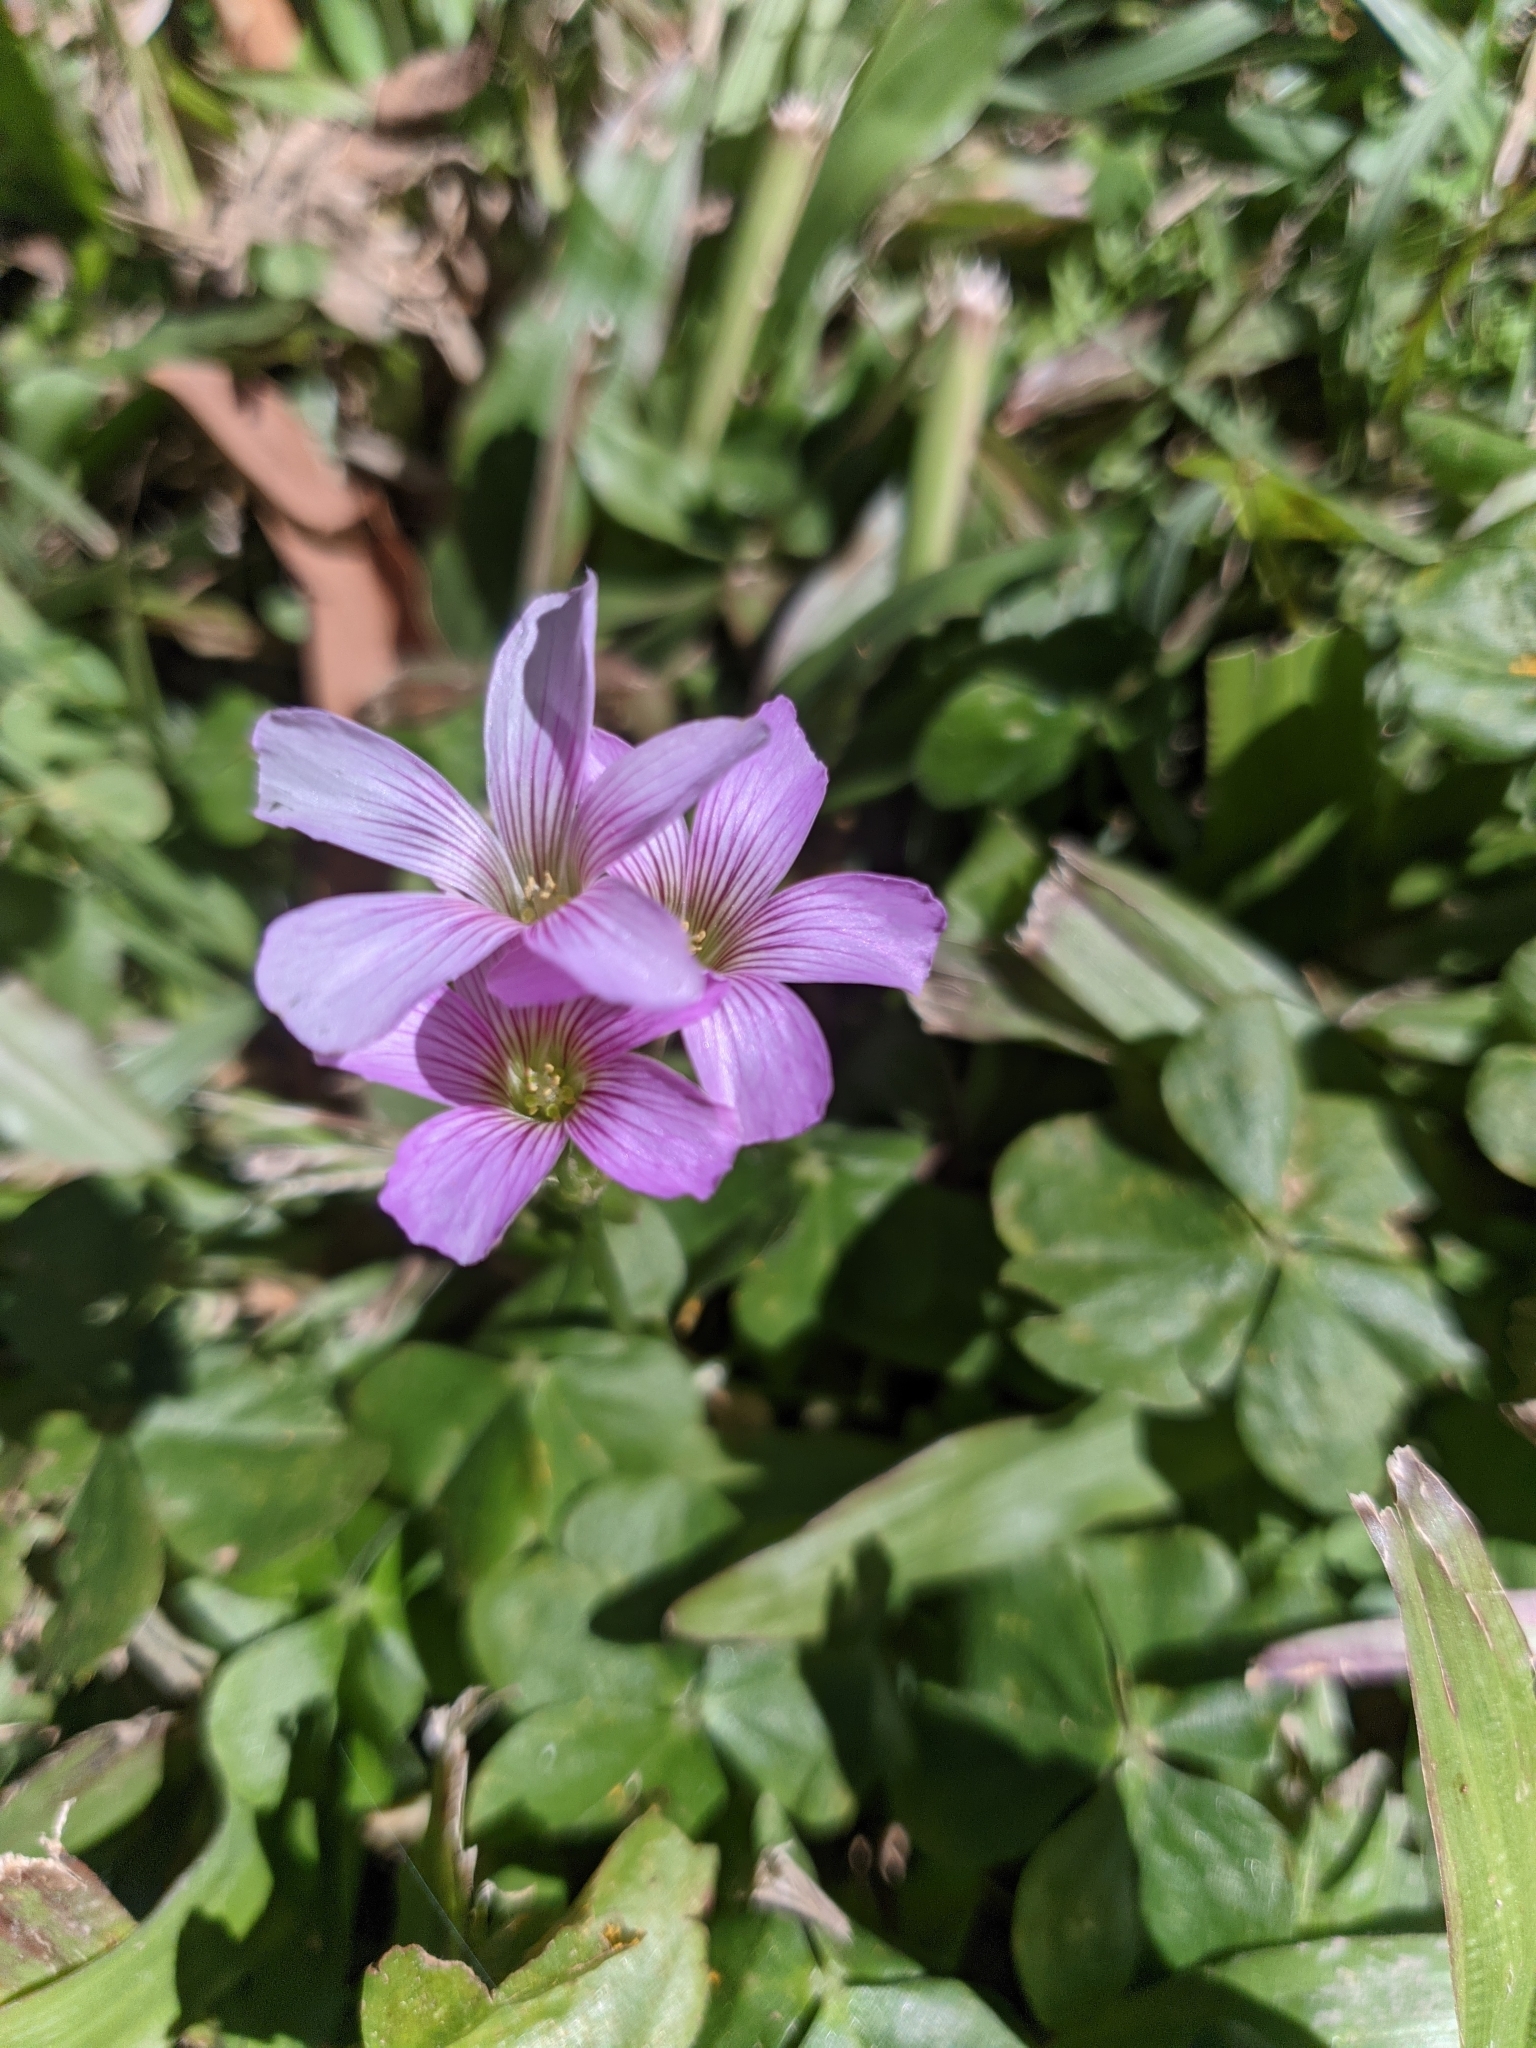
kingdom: Plantae
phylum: Tracheophyta
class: Magnoliopsida
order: Oxalidales
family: Oxalidaceae
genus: Oxalis
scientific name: Oxalis debilis
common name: Large-flowered pink-sorrel
